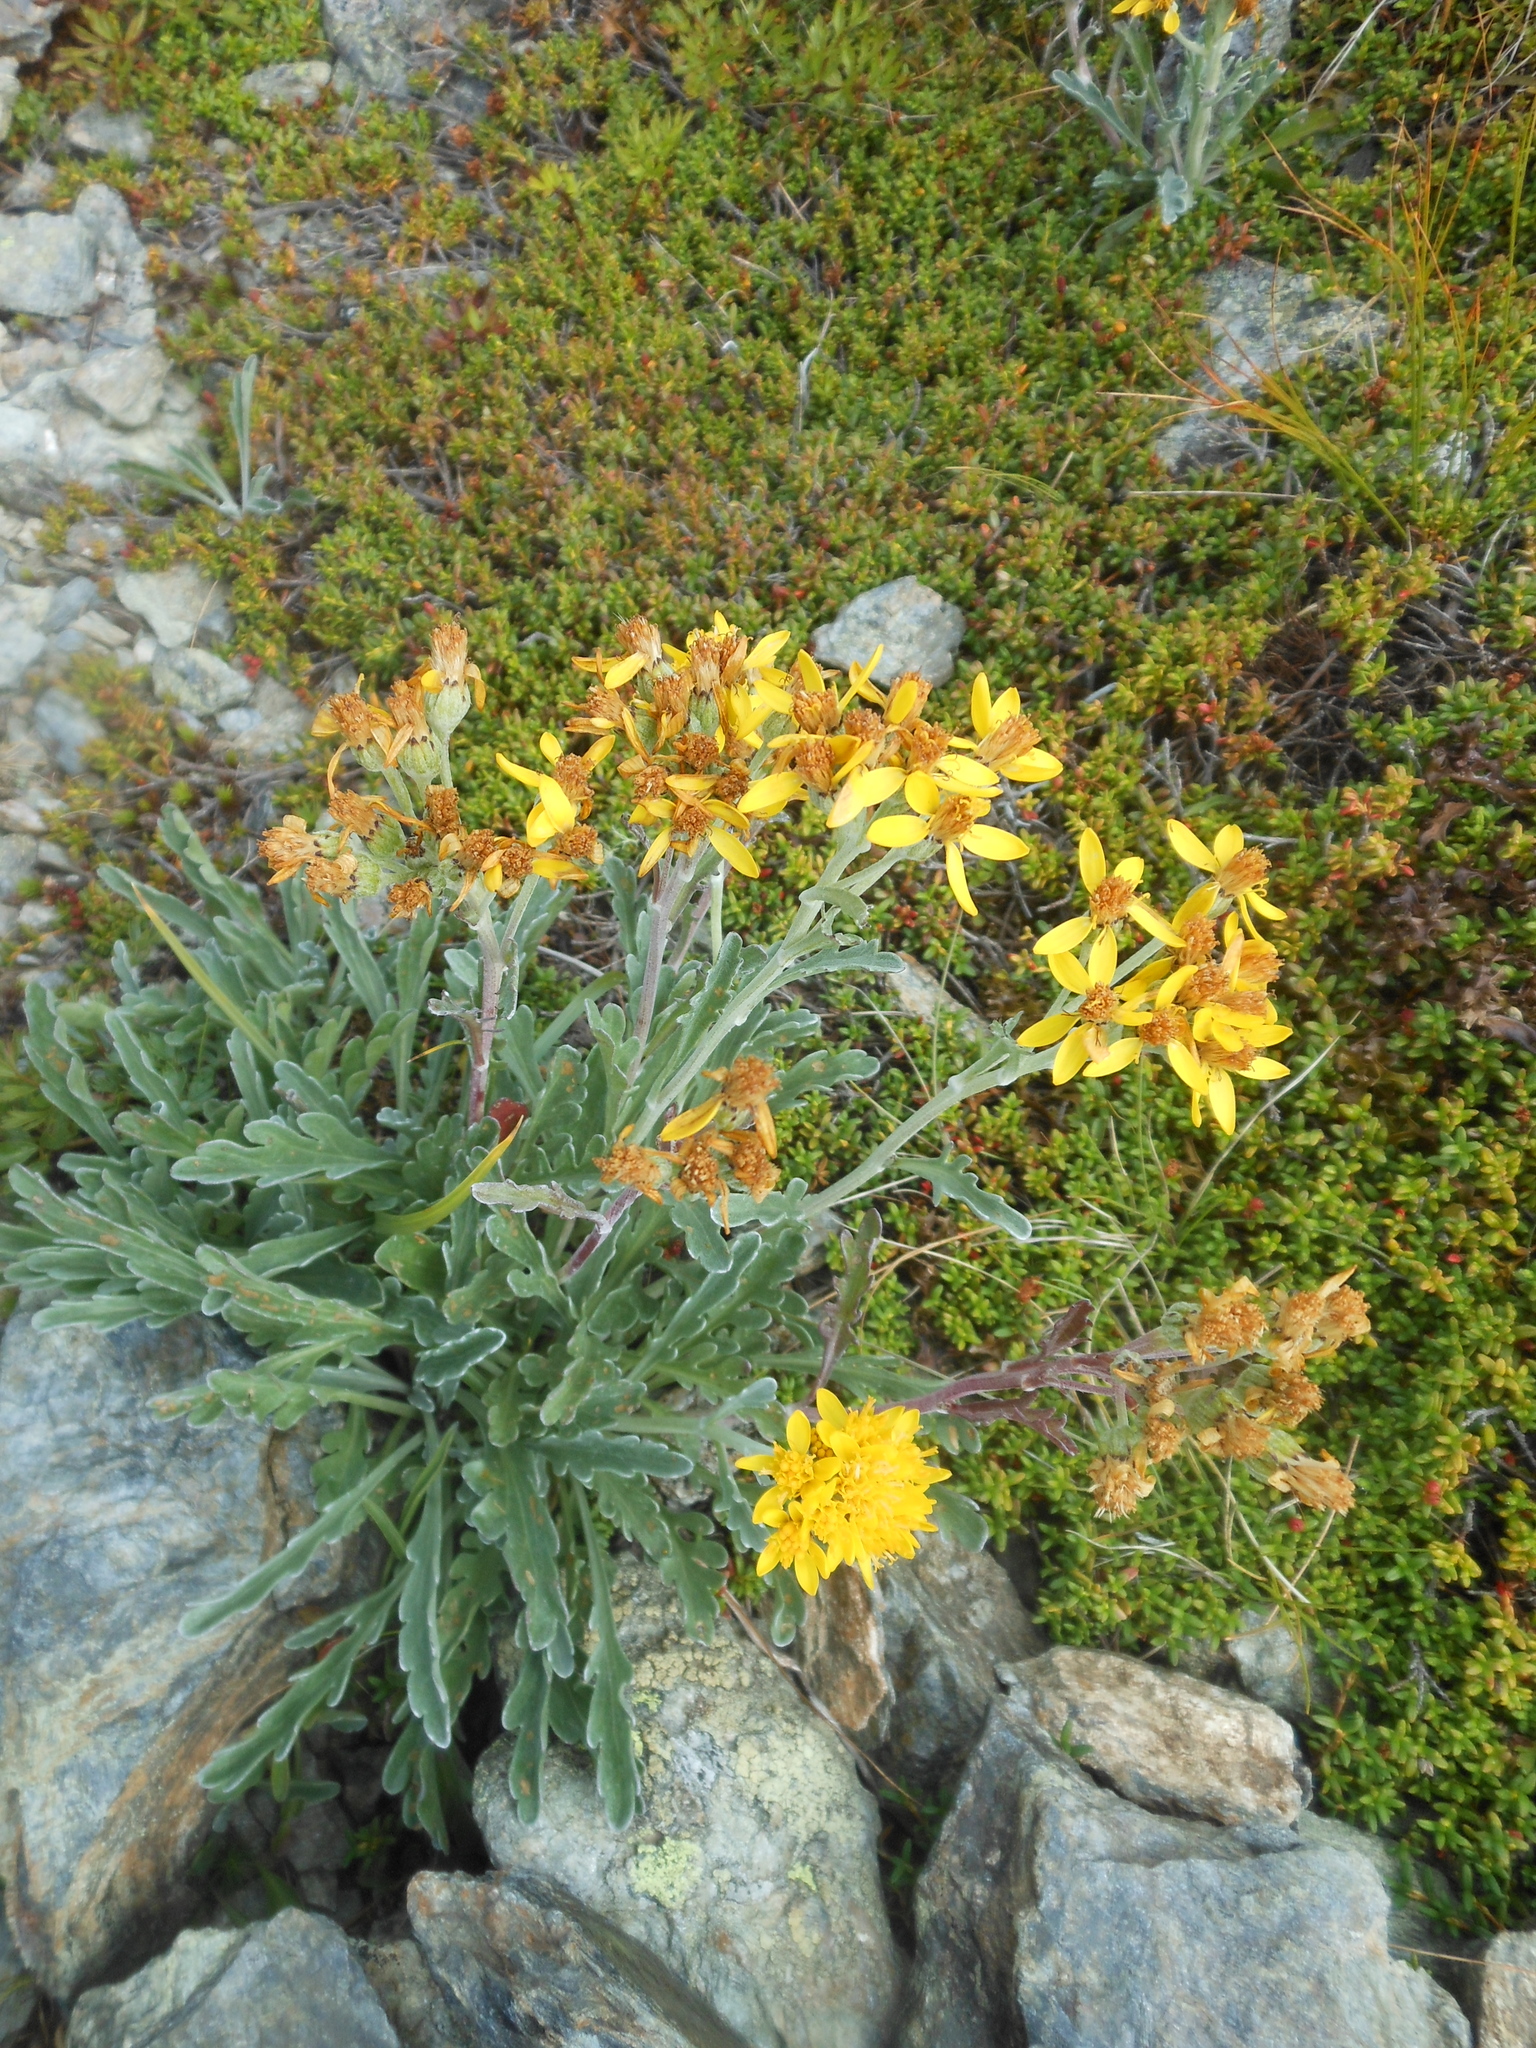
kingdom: Plantae
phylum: Tracheophyta
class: Magnoliopsida
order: Asterales
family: Asteraceae
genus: Jacobaea
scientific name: Jacobaea carniolica
